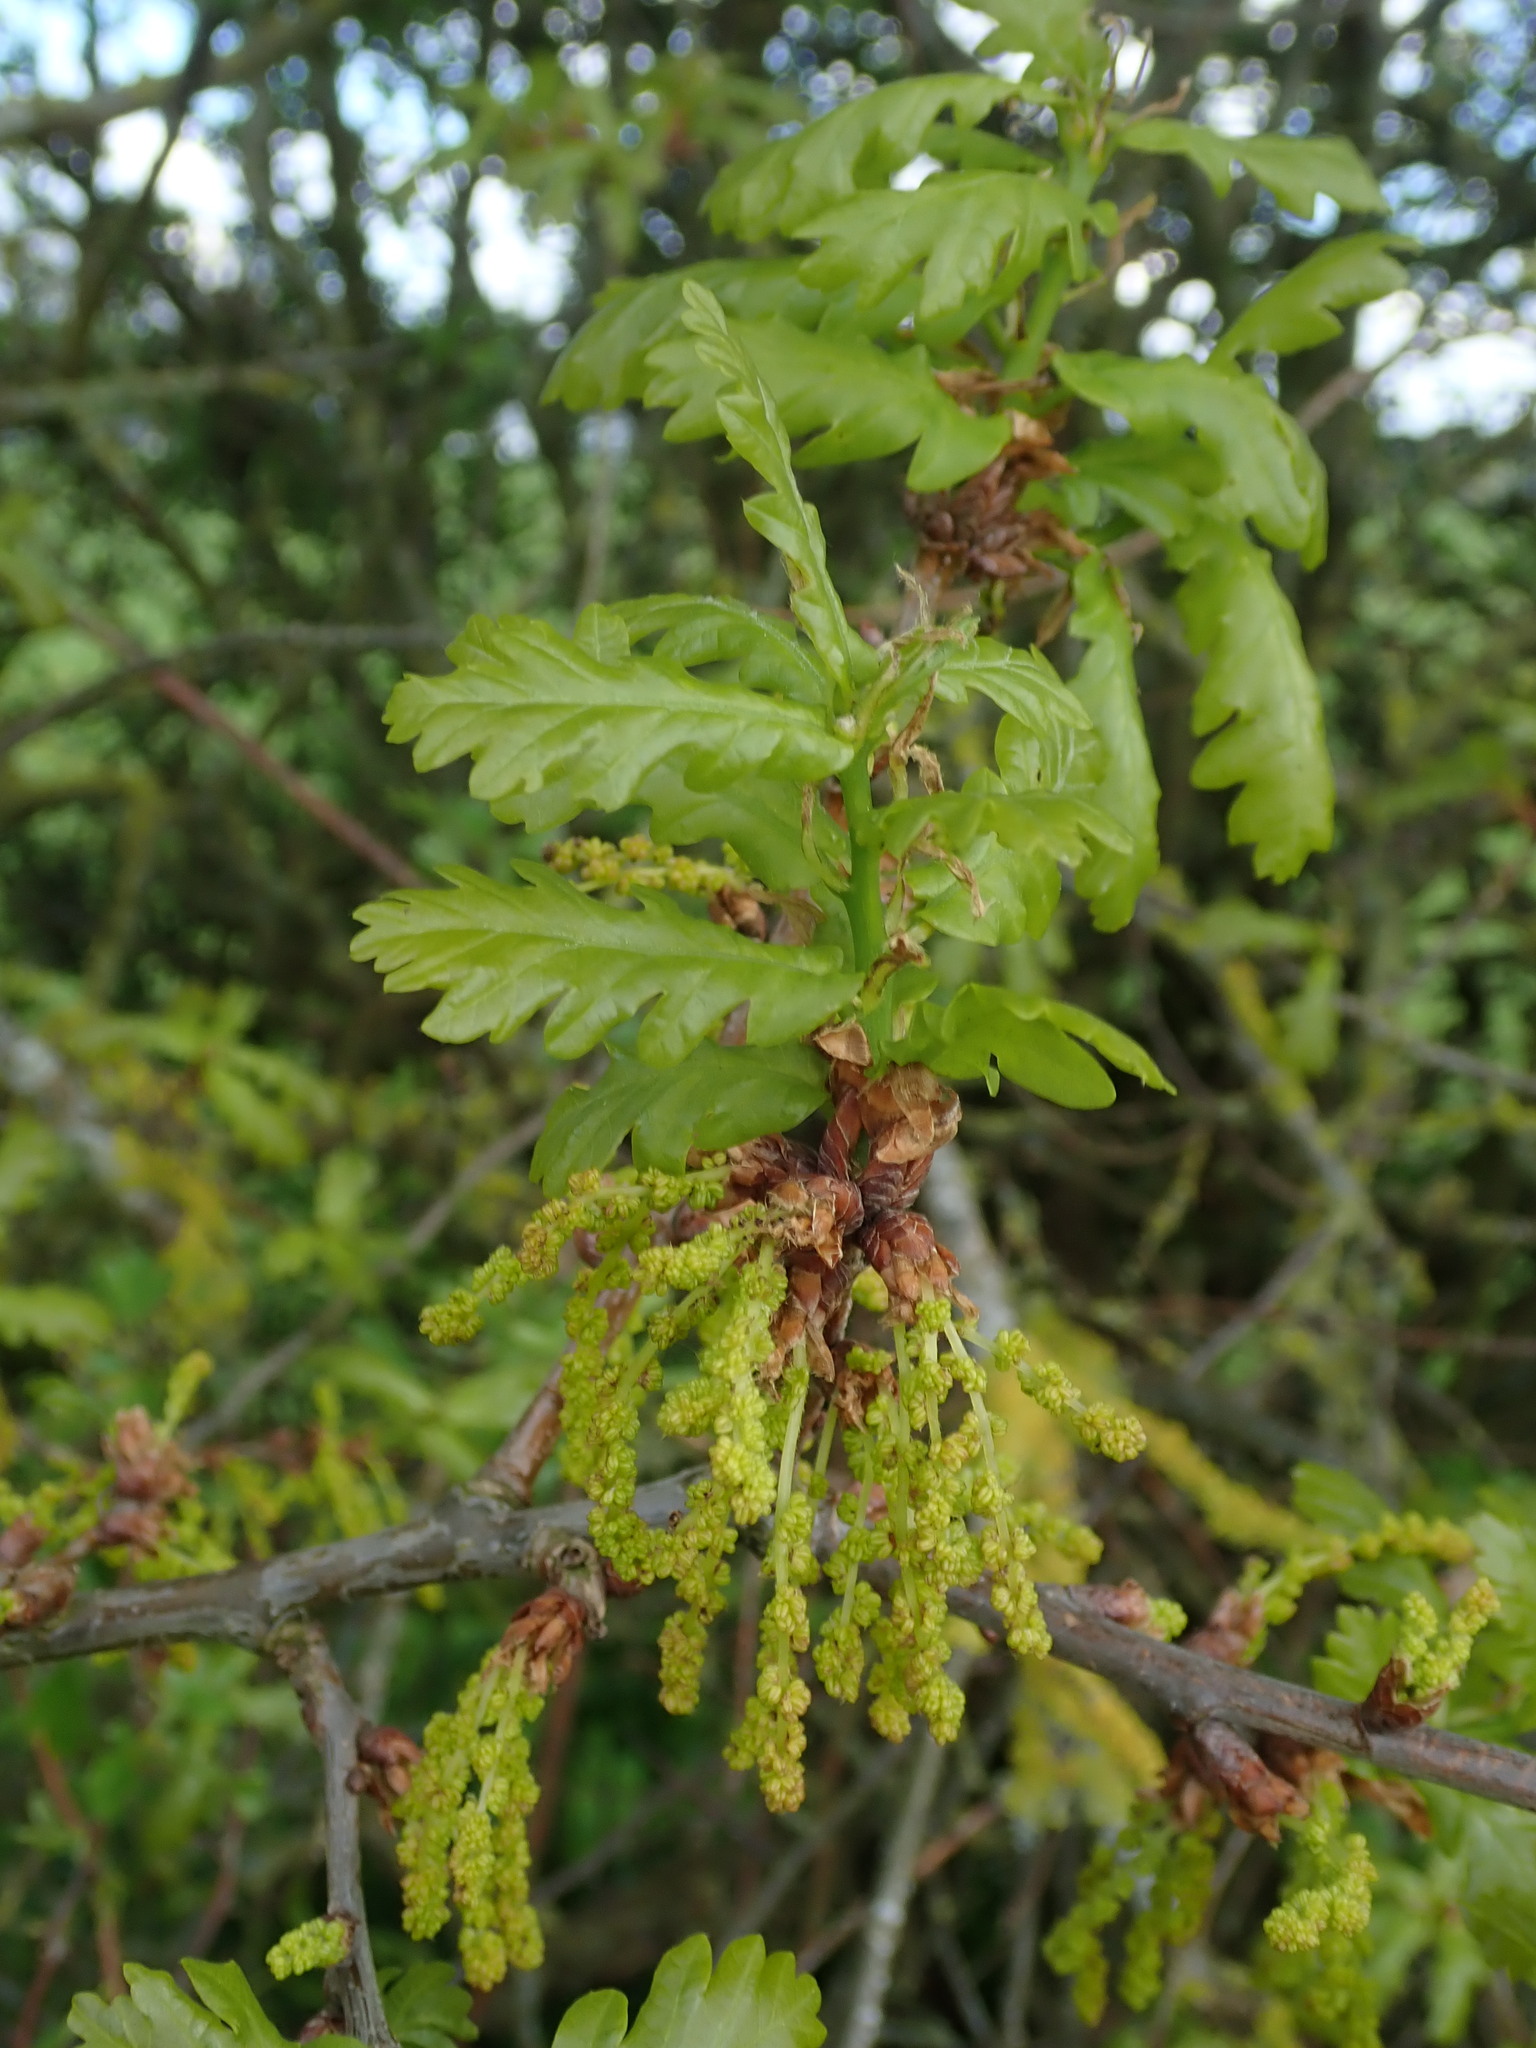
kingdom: Plantae
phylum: Tracheophyta
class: Magnoliopsida
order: Fagales
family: Fagaceae
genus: Quercus
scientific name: Quercus robur
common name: Pedunculate oak
